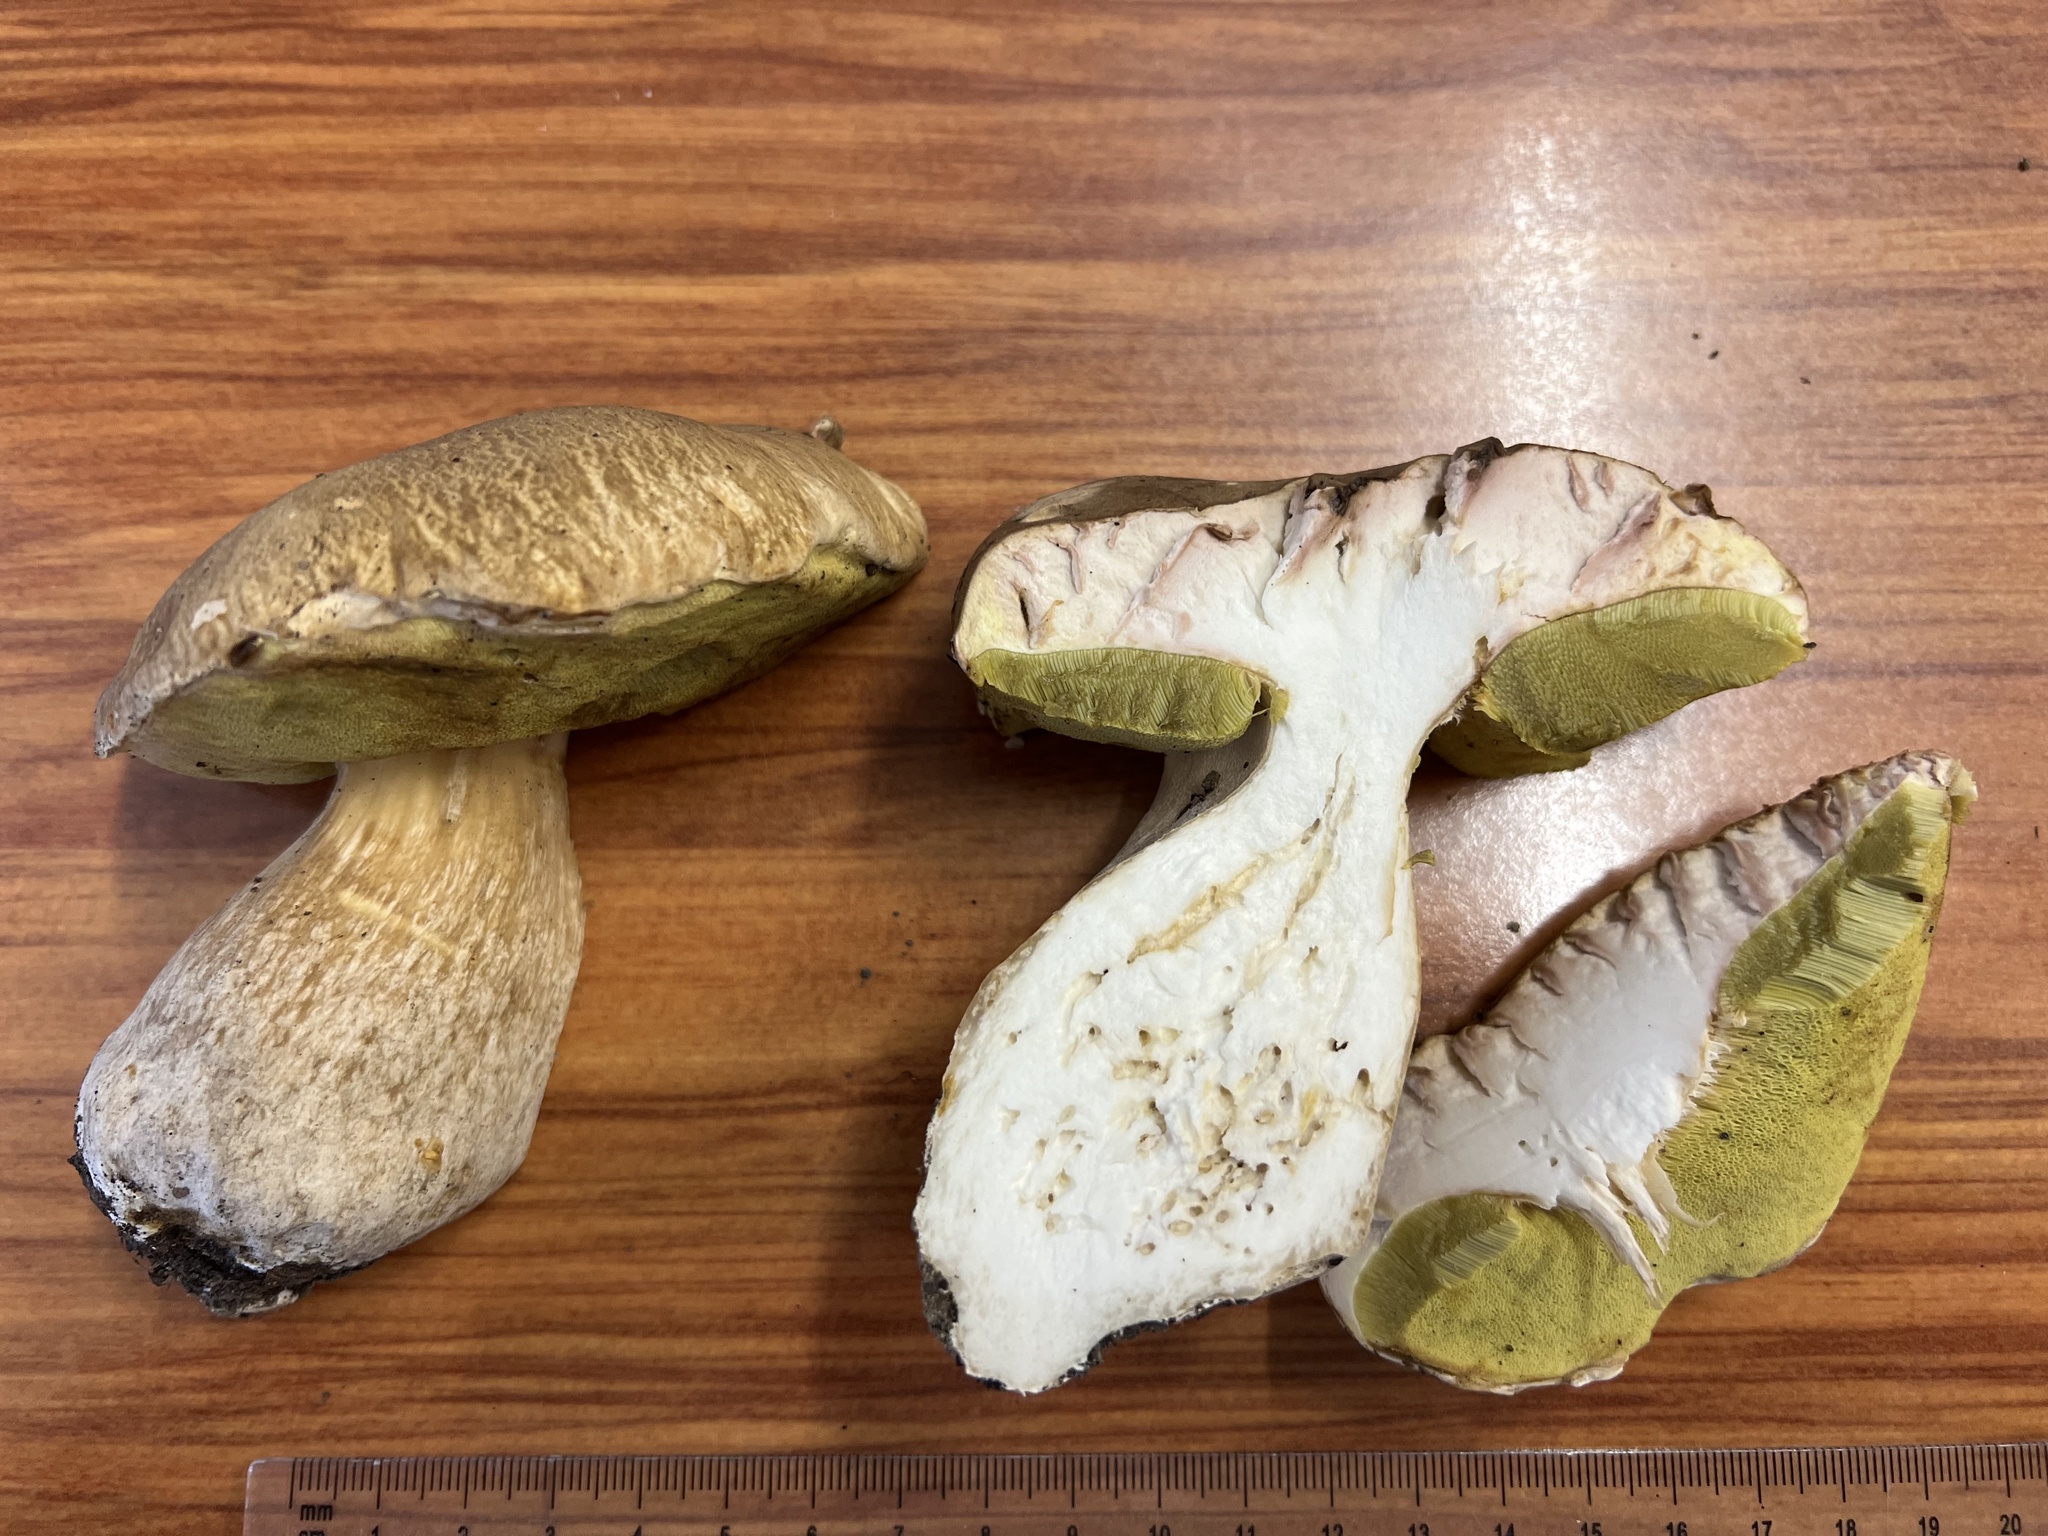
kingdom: Fungi
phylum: Basidiomycota
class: Agaricomycetes
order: Boletales
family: Boletaceae
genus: Boletus
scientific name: Boletus edulis
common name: Cep
